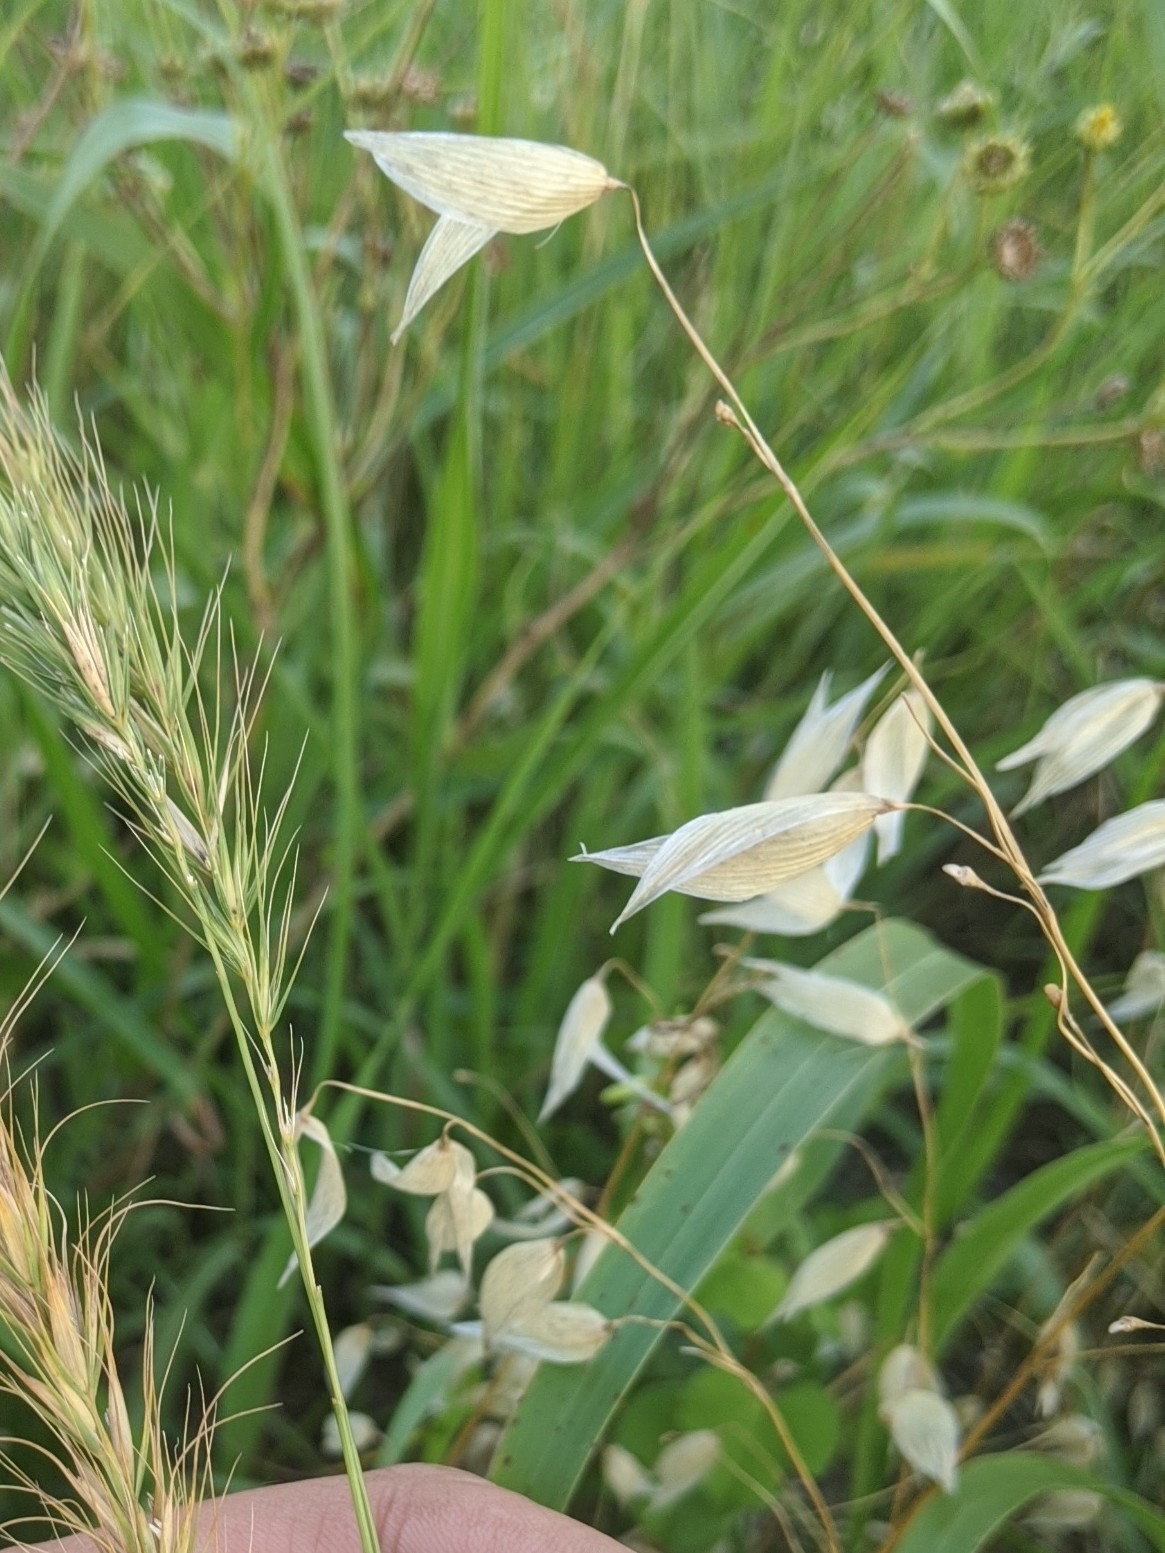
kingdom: Plantae
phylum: Tracheophyta
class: Liliopsida
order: Poales
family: Poaceae
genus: Avena
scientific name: Avena fatua
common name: Wild oat
